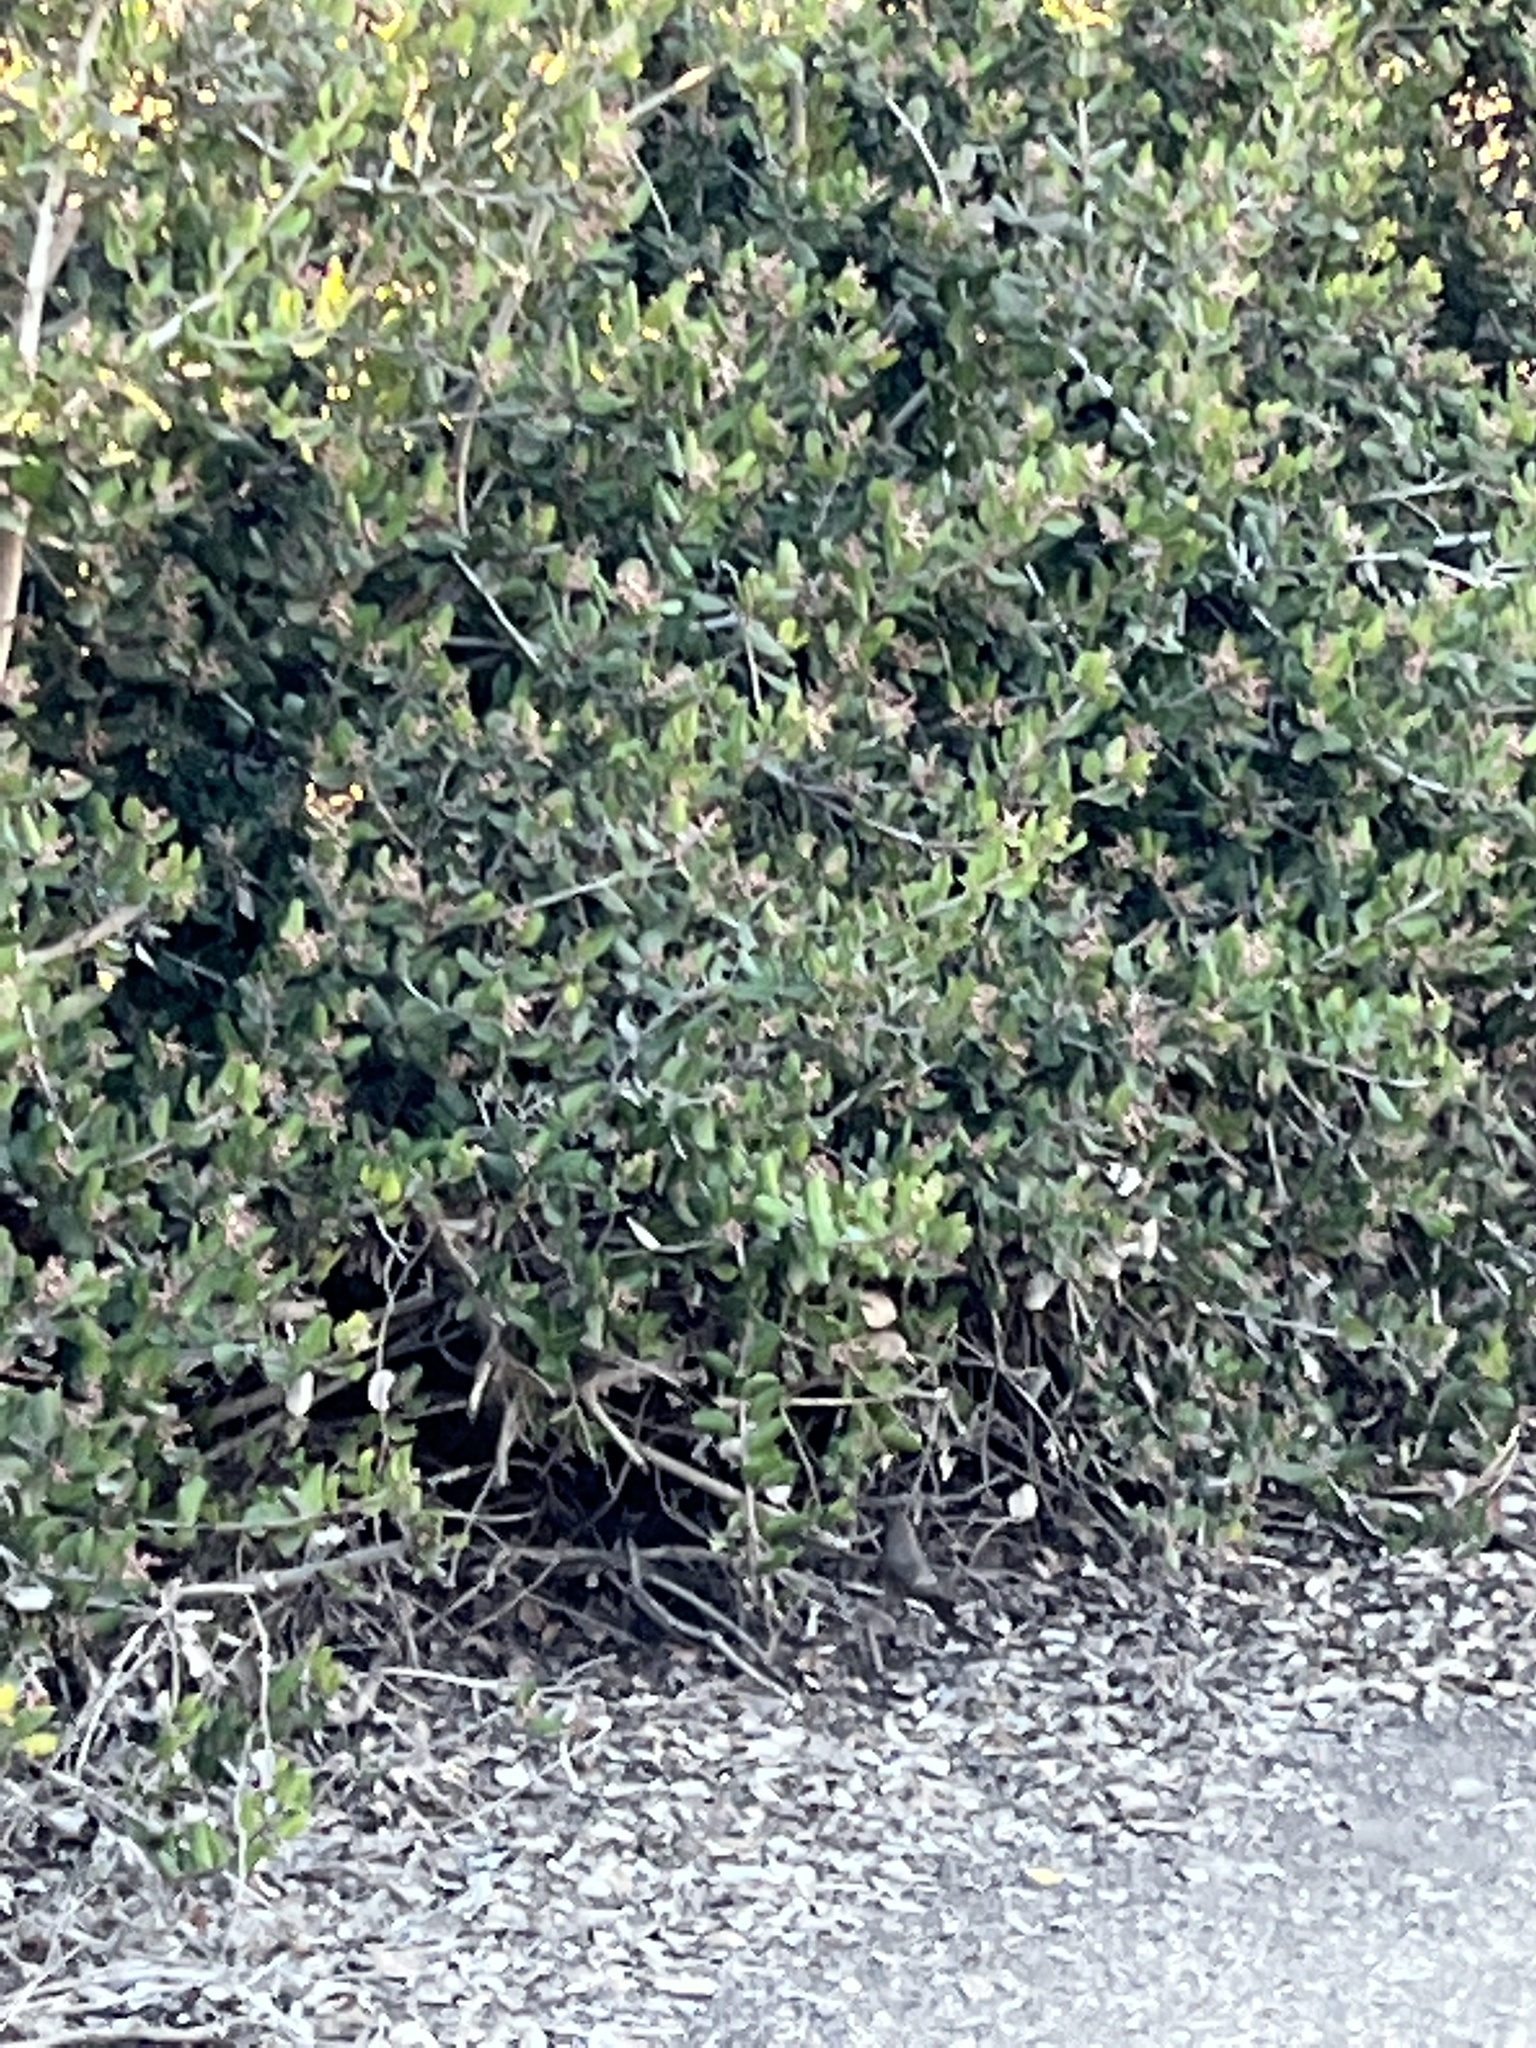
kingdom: Animalia
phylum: Chordata
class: Aves
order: Passeriformes
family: Passerellidae
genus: Melozone
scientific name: Melozone crissalis
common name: California towhee
